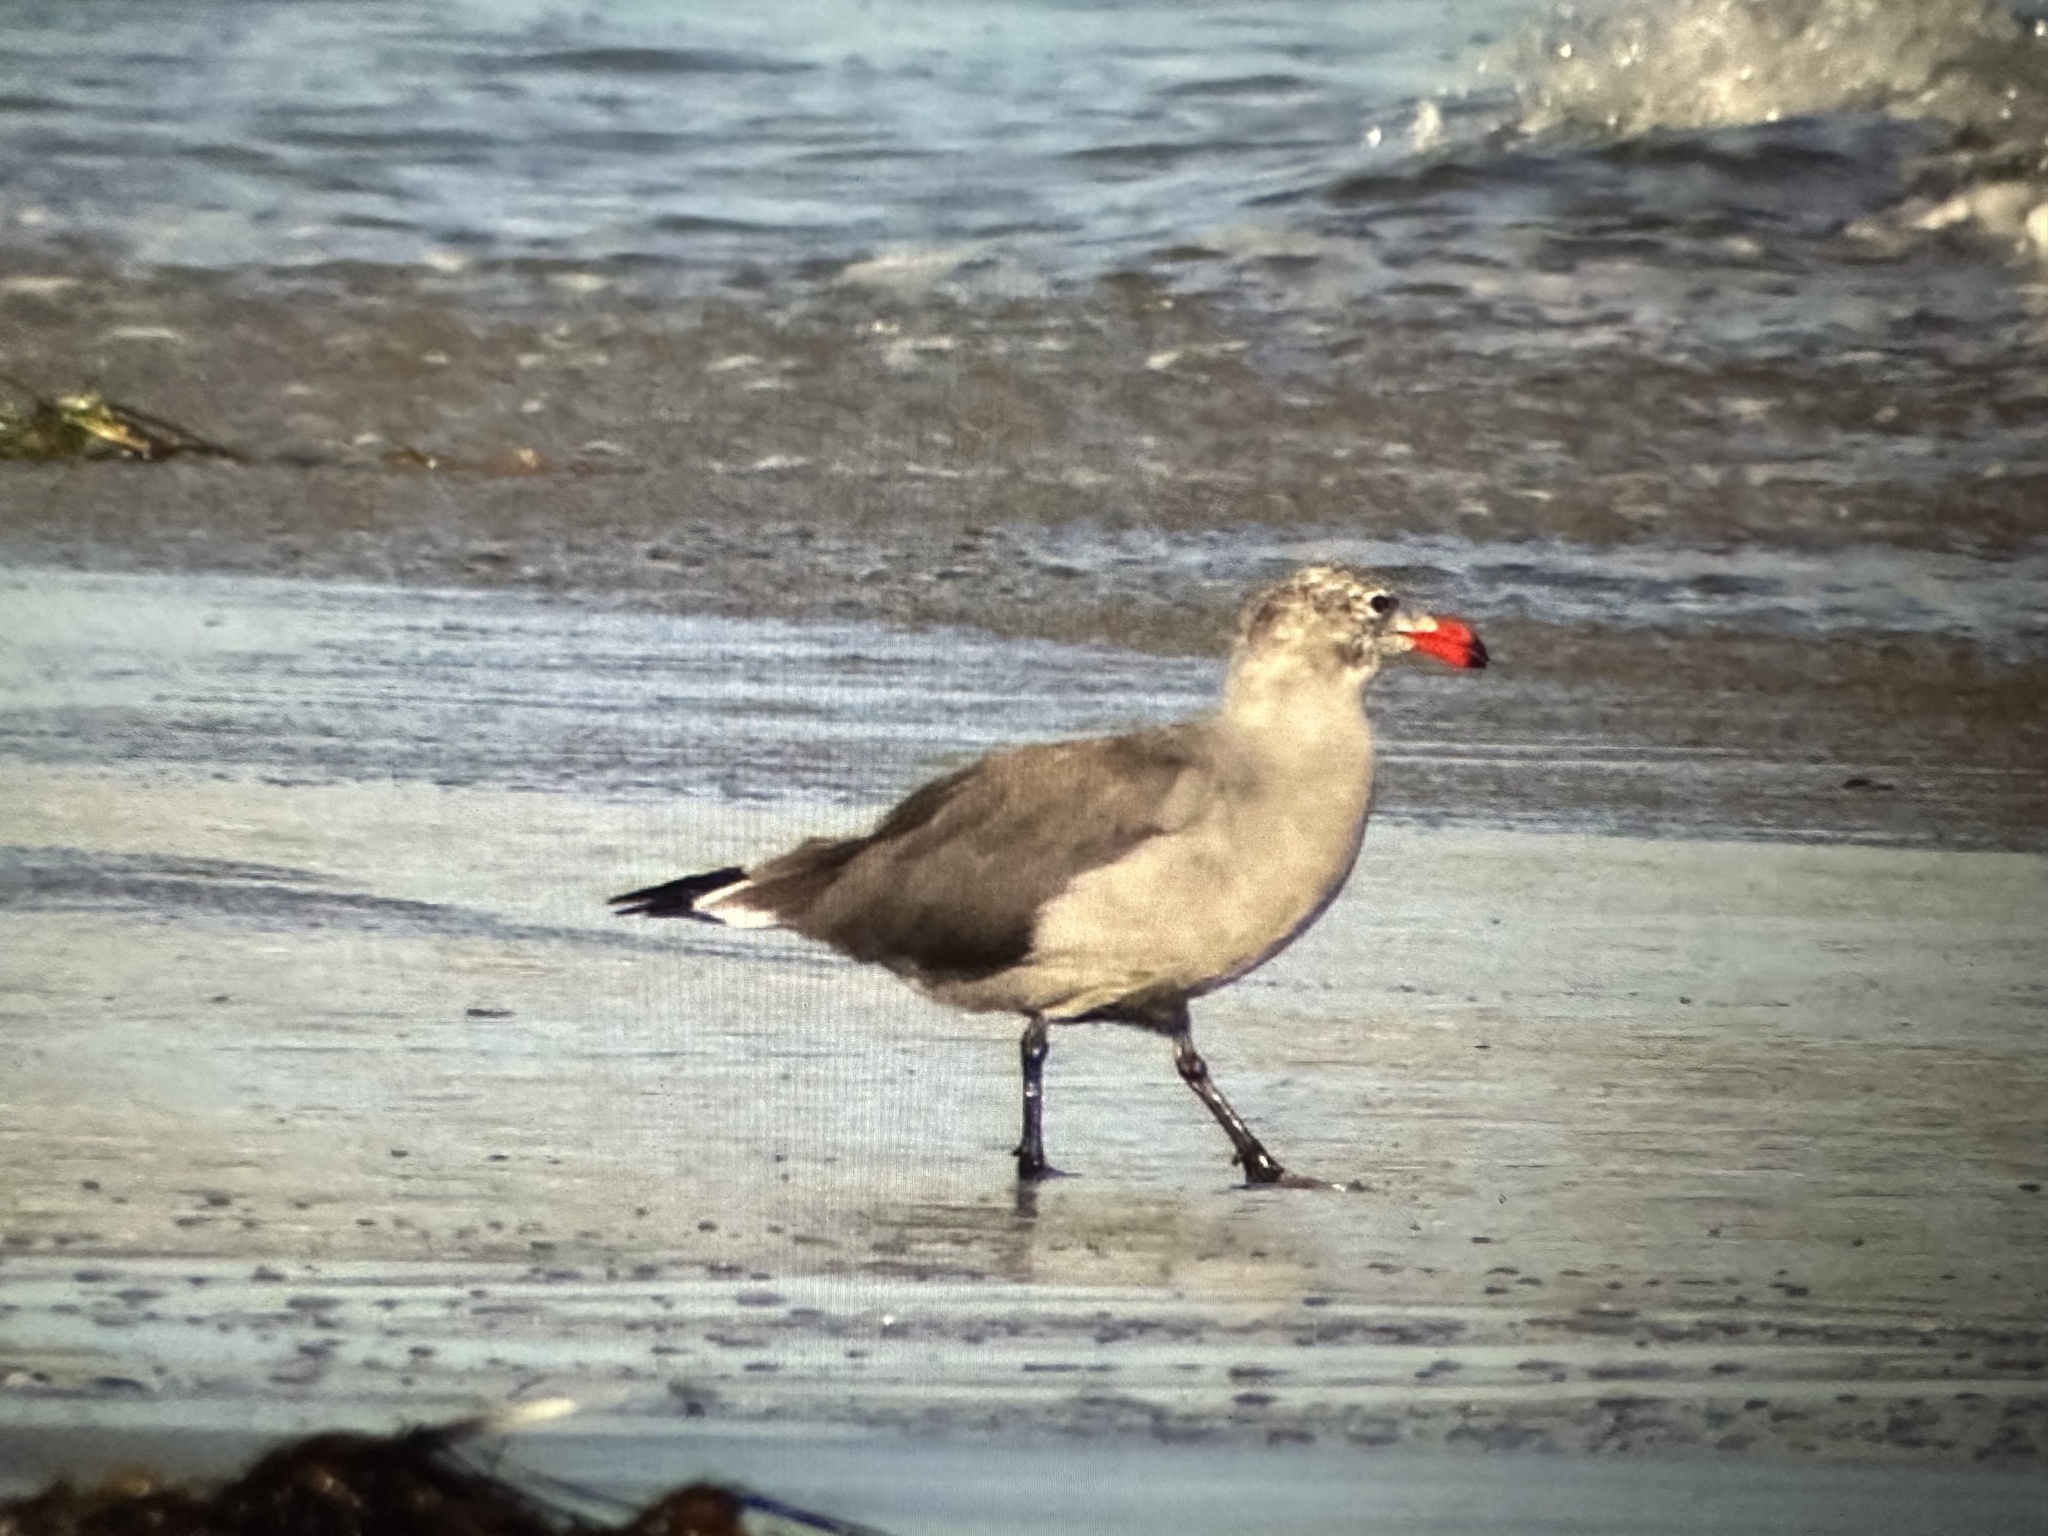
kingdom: Animalia
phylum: Chordata
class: Aves
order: Charadriiformes
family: Laridae
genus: Larus
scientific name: Larus heermanni
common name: Heermann's gull
